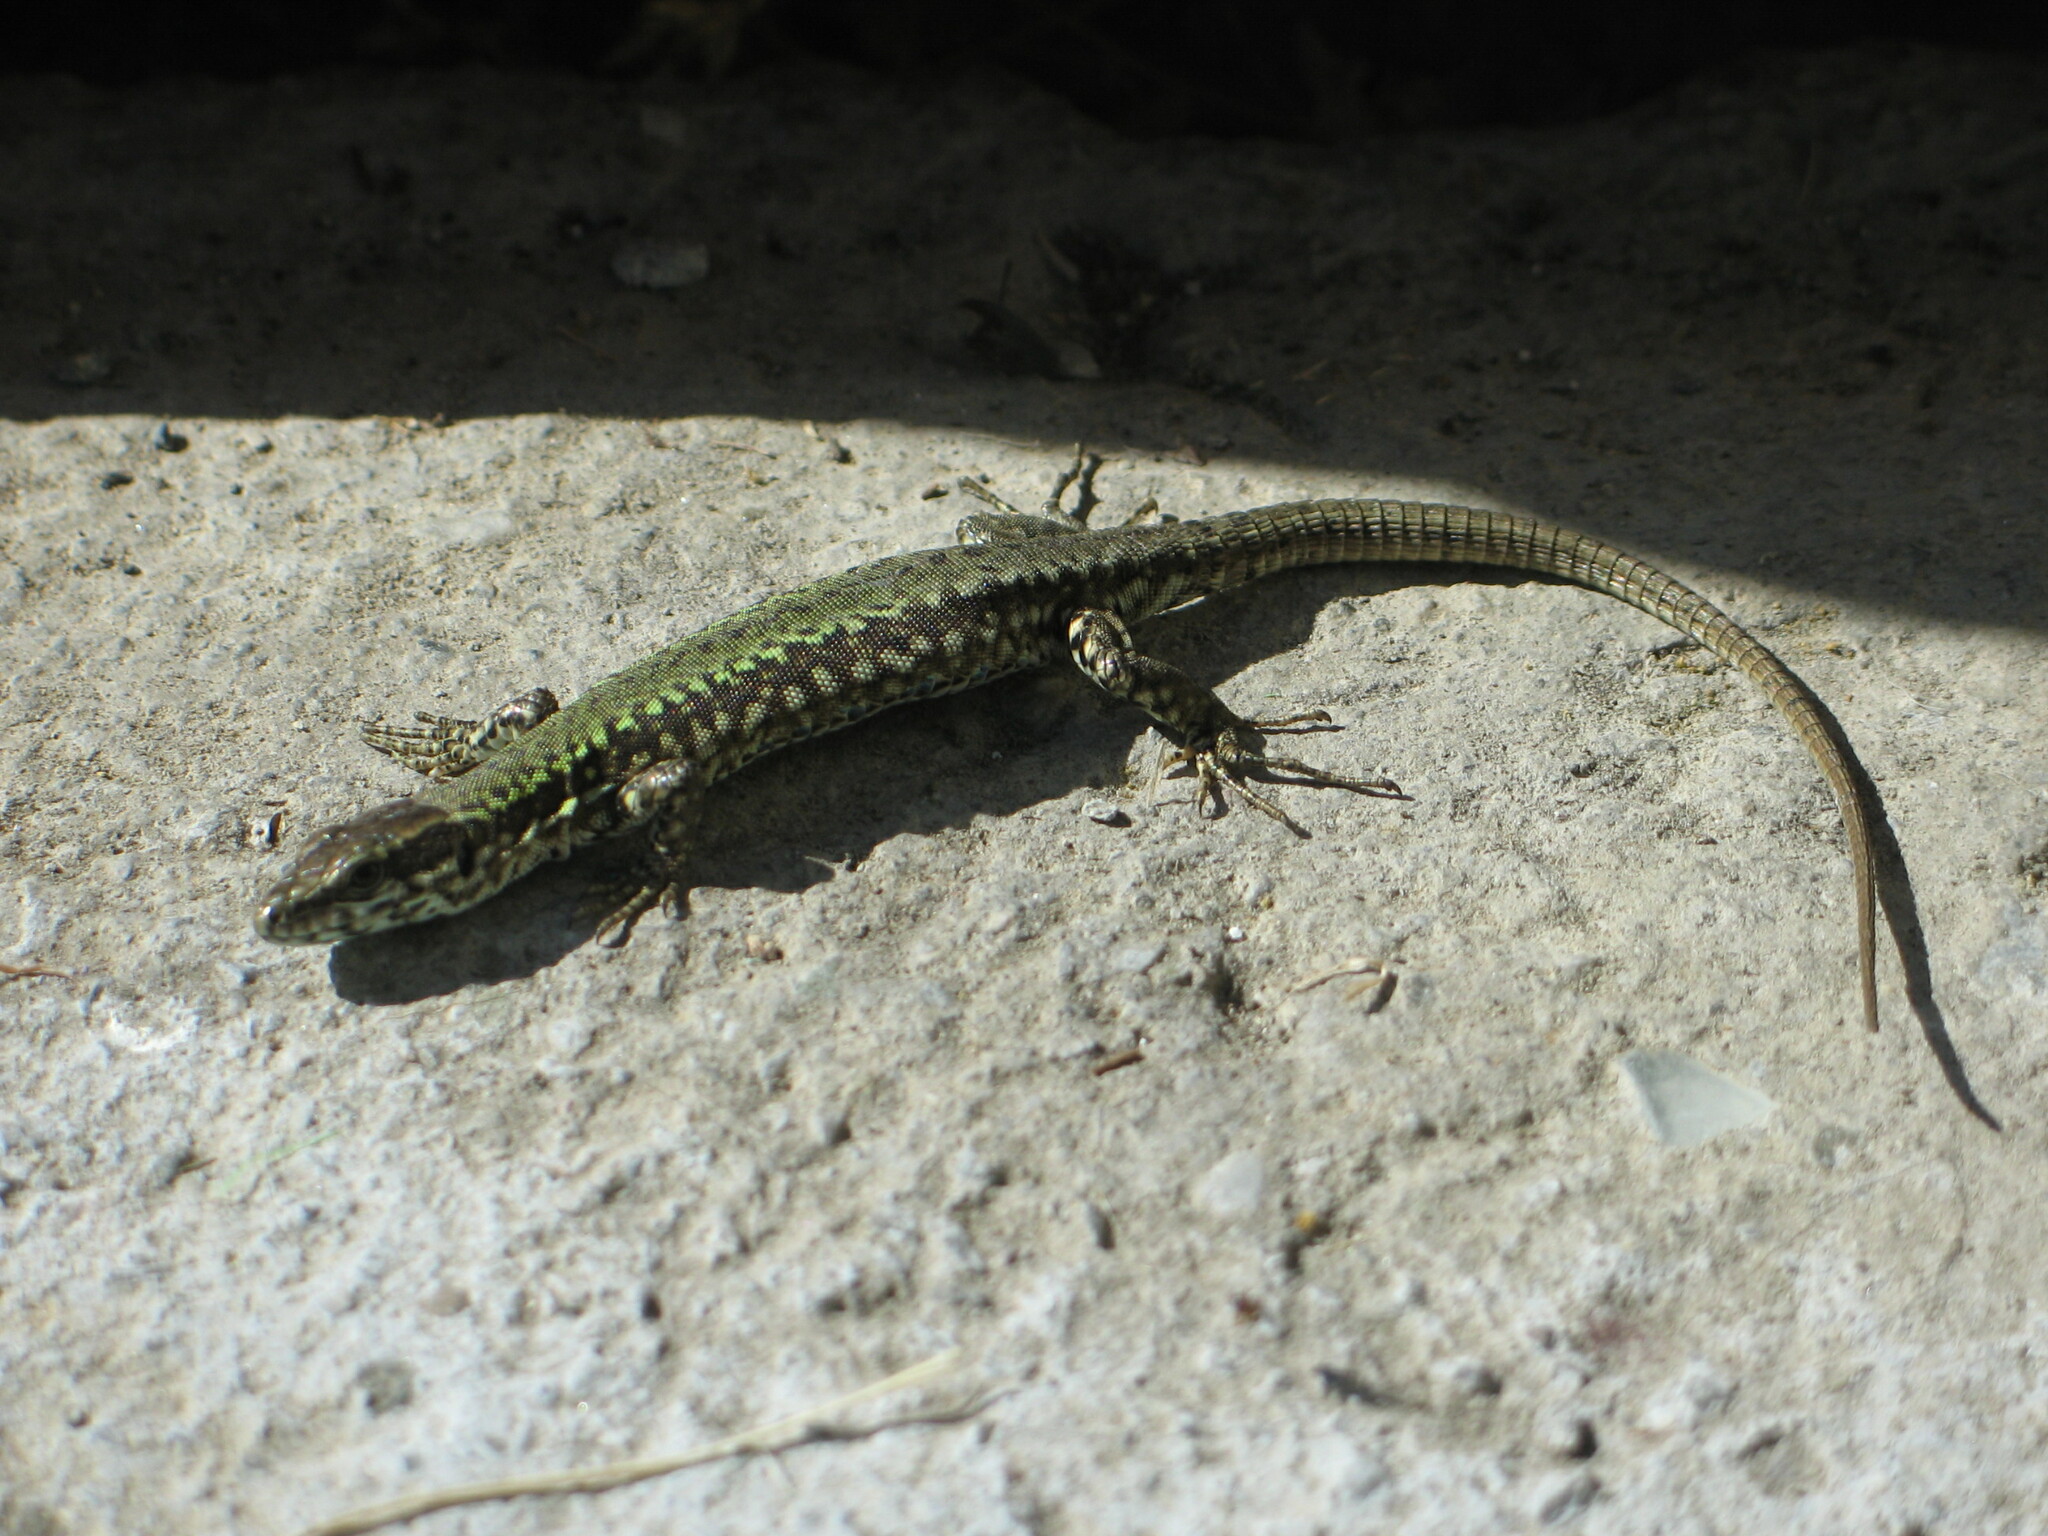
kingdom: Animalia
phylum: Chordata
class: Squamata
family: Lacertidae
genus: Podarcis
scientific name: Podarcis muralis
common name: Common wall lizard
